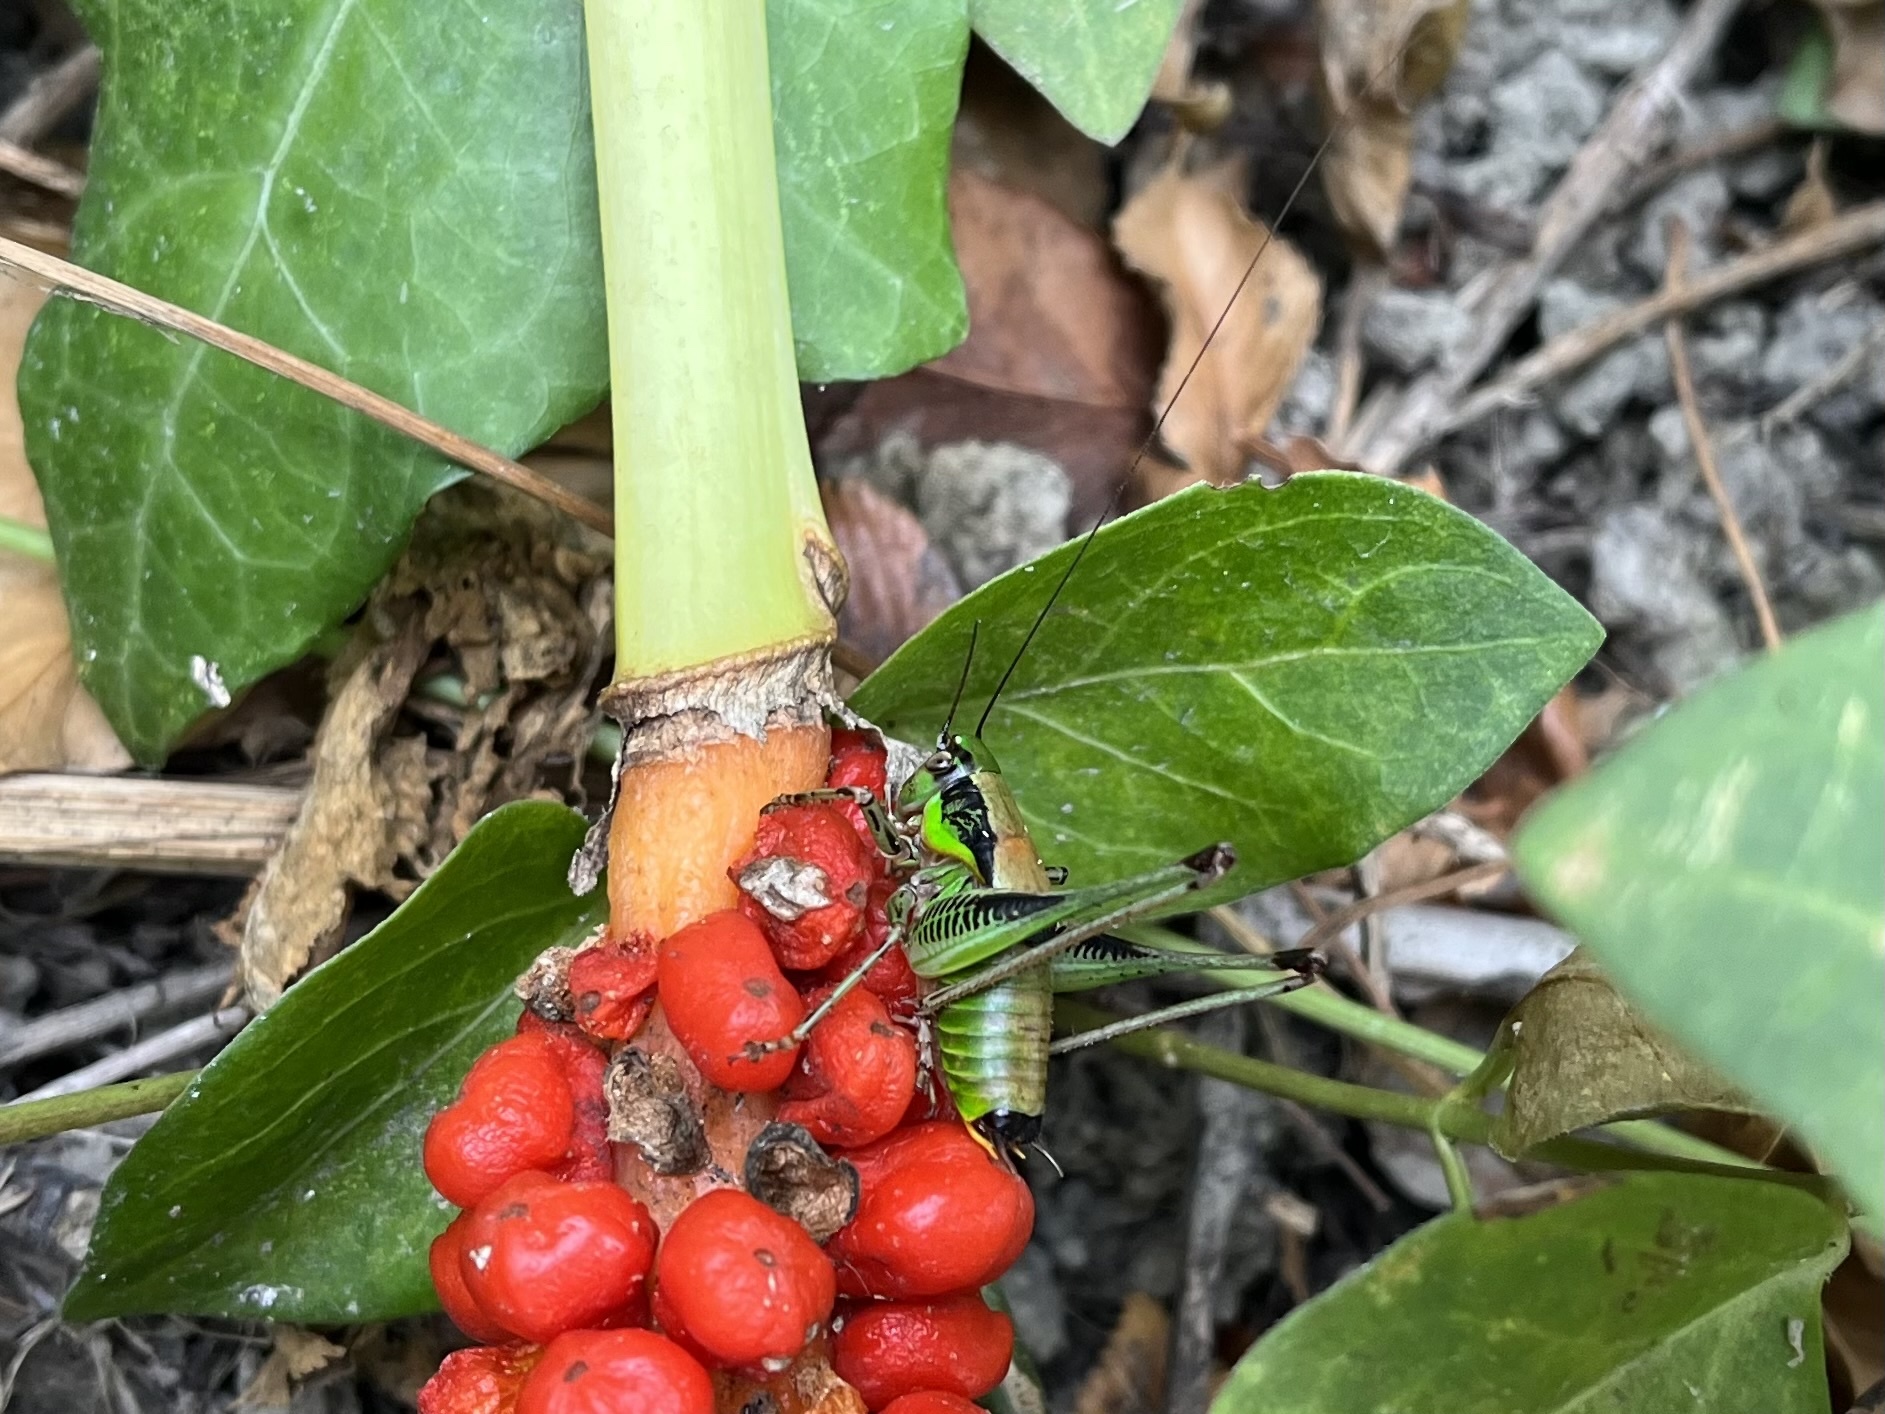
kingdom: Animalia
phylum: Arthropoda
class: Insecta
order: Orthoptera
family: Tettigoniidae
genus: Eupholidoptera
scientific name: Eupholidoptera garganica
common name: Gargano marbled bush-cricket
